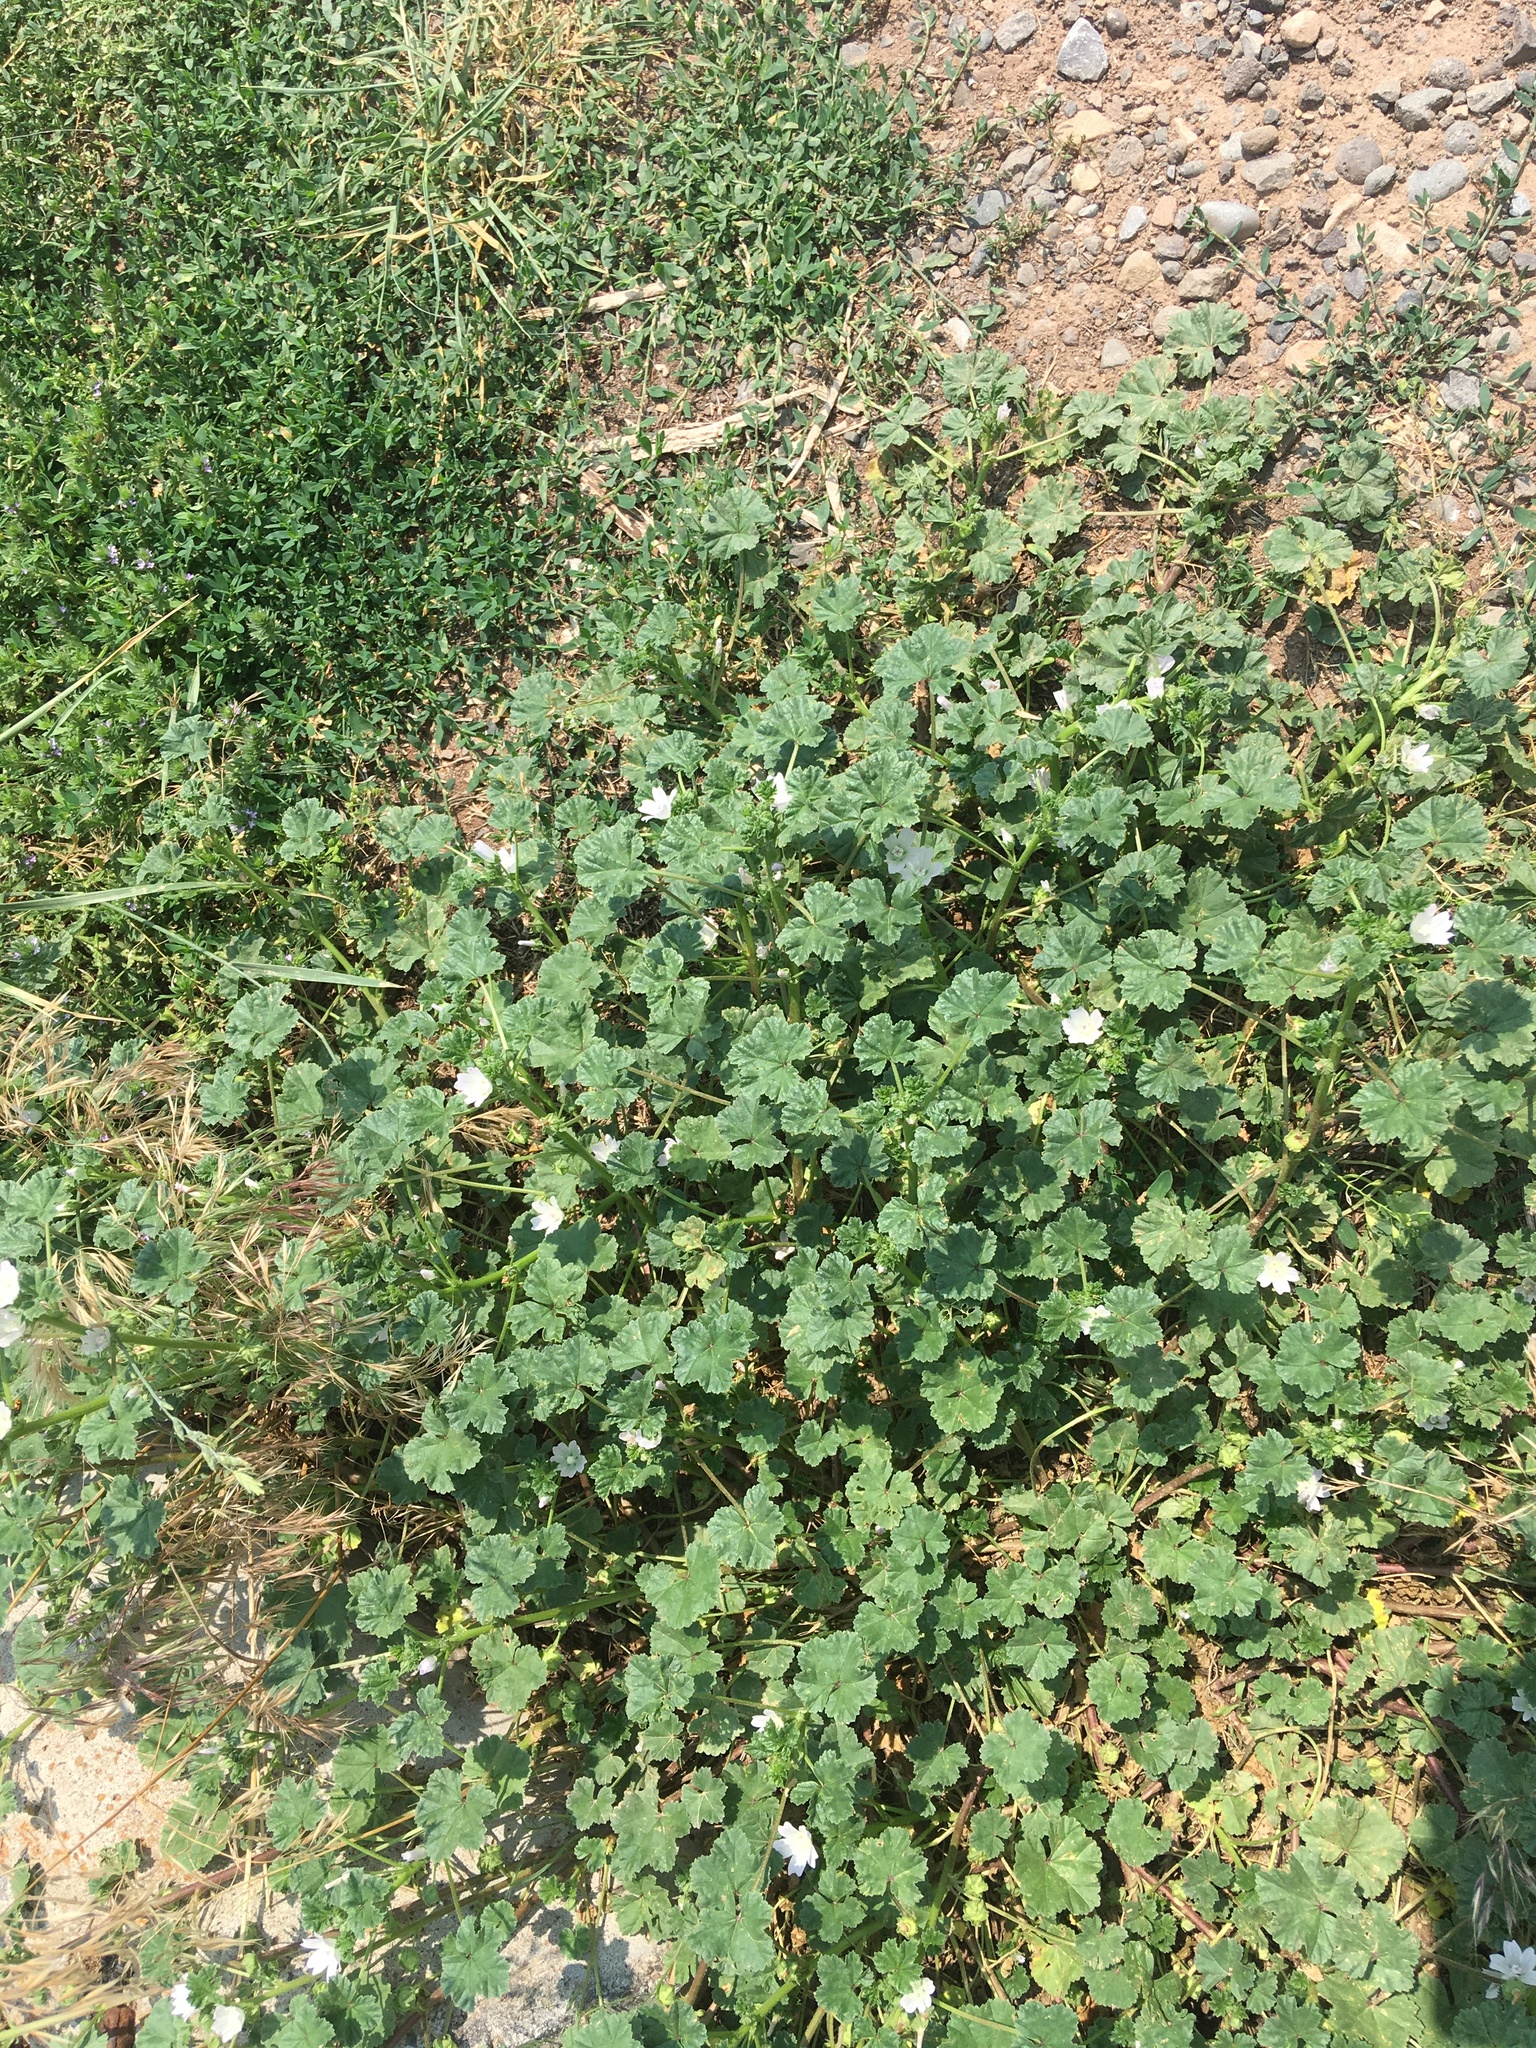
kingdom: Plantae
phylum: Tracheophyta
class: Magnoliopsida
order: Malvales
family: Malvaceae
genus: Malva
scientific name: Malva neglecta
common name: Common mallow
